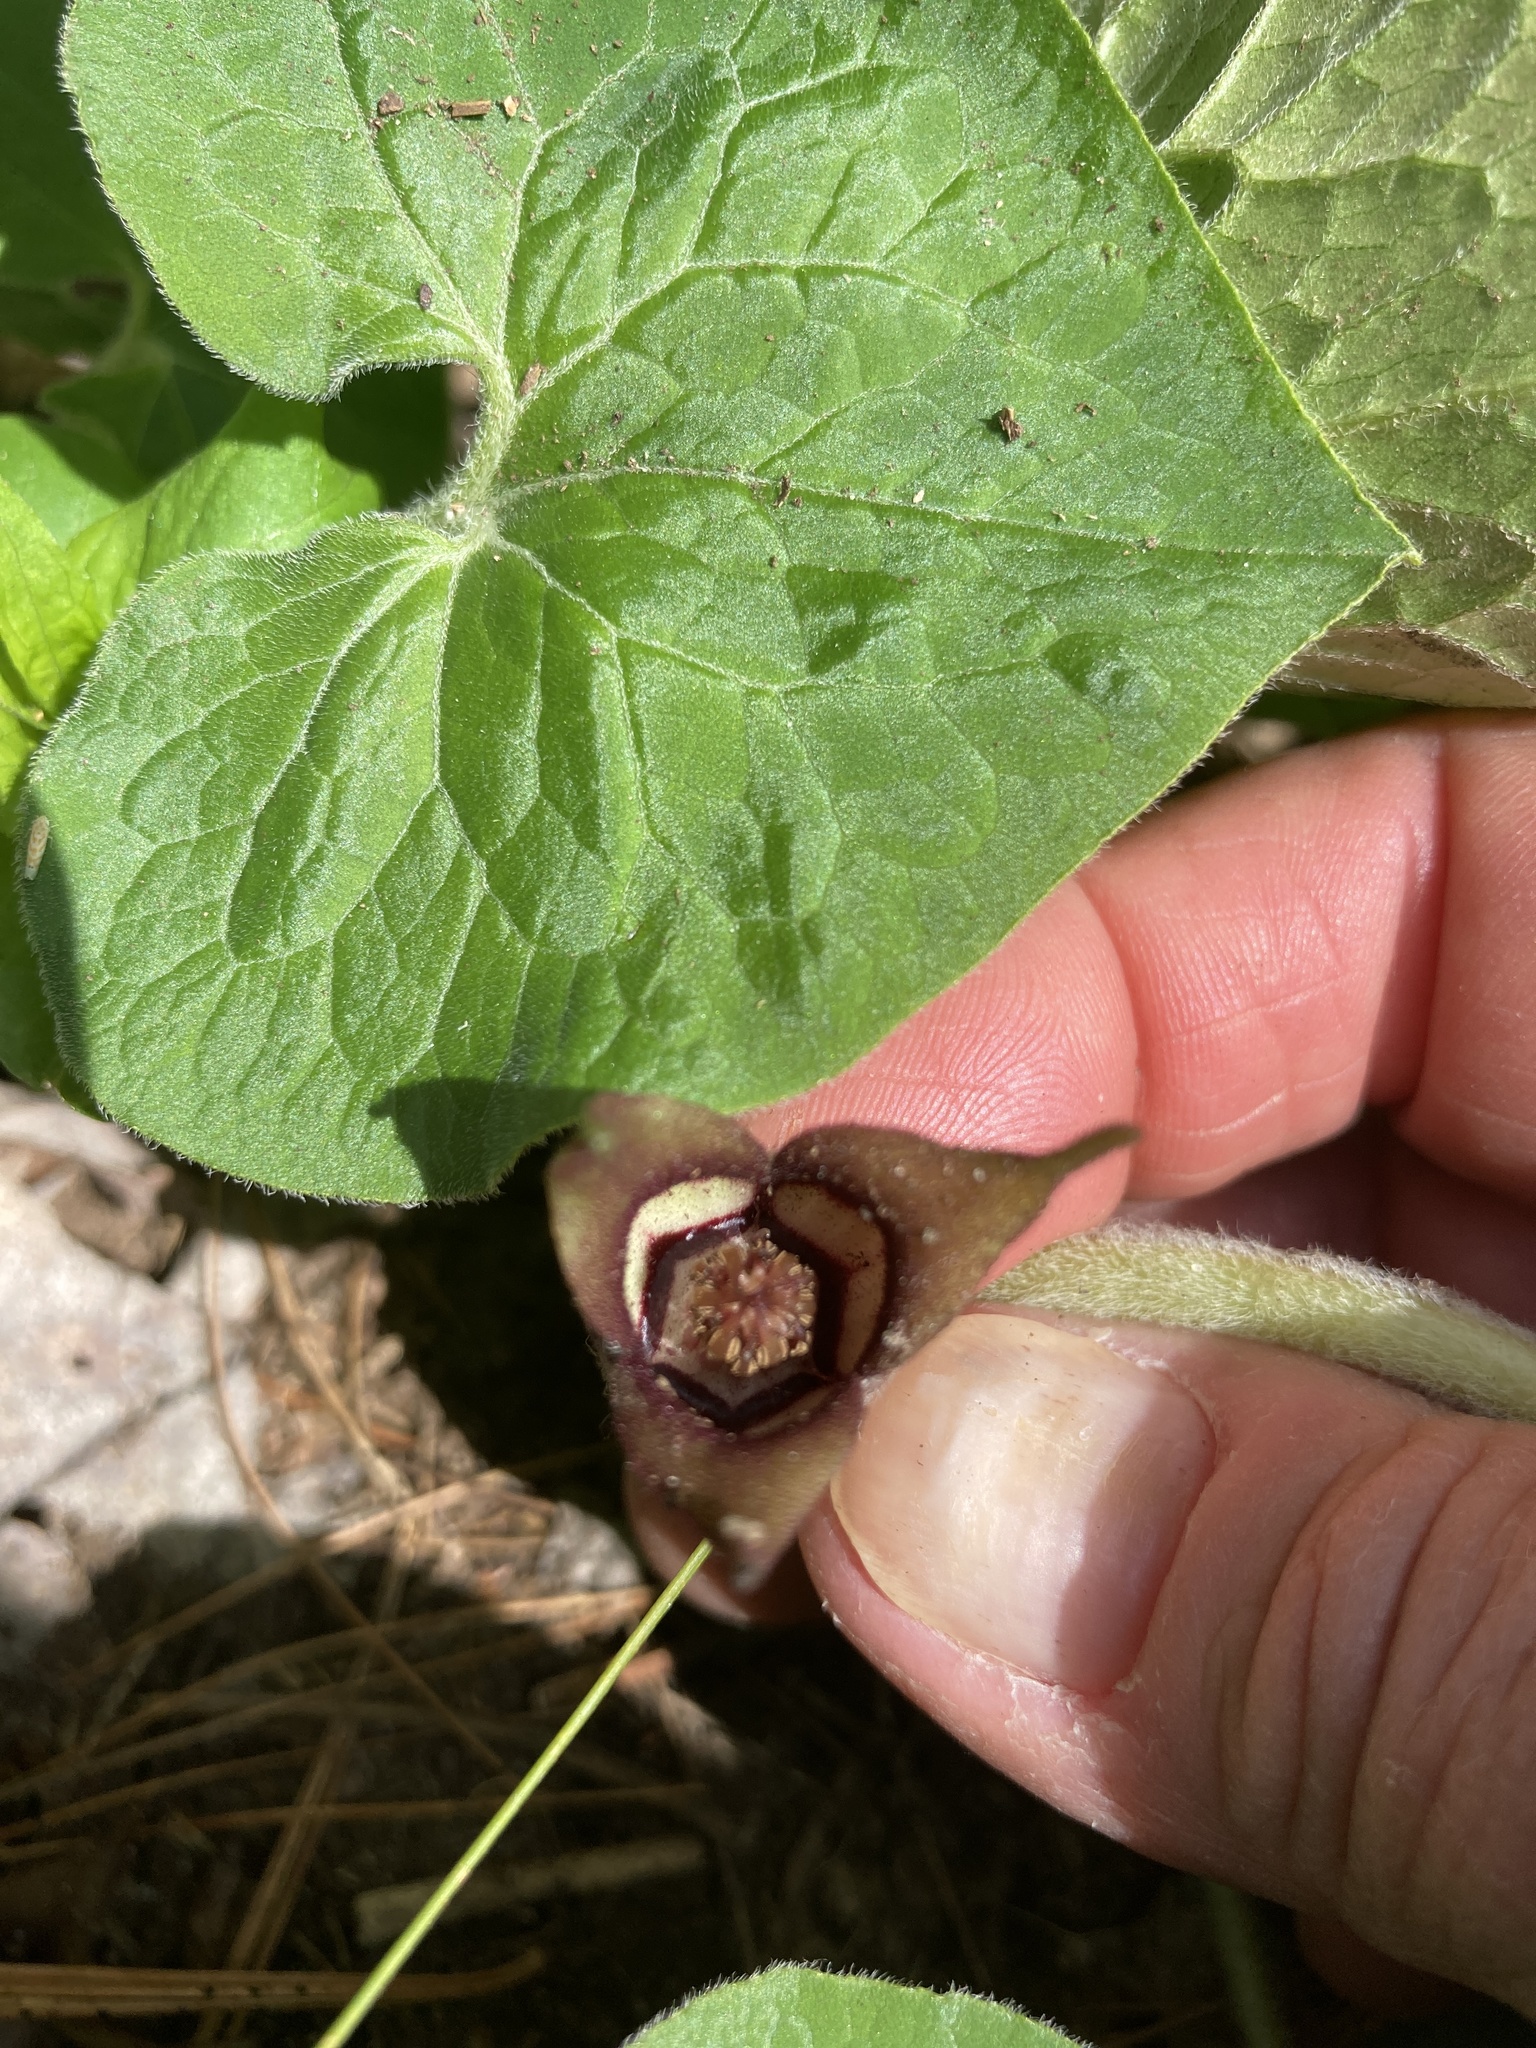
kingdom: Plantae
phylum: Tracheophyta
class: Magnoliopsida
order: Piperales
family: Aristolochiaceae
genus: Asarum
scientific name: Asarum canadense
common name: Wild ginger
